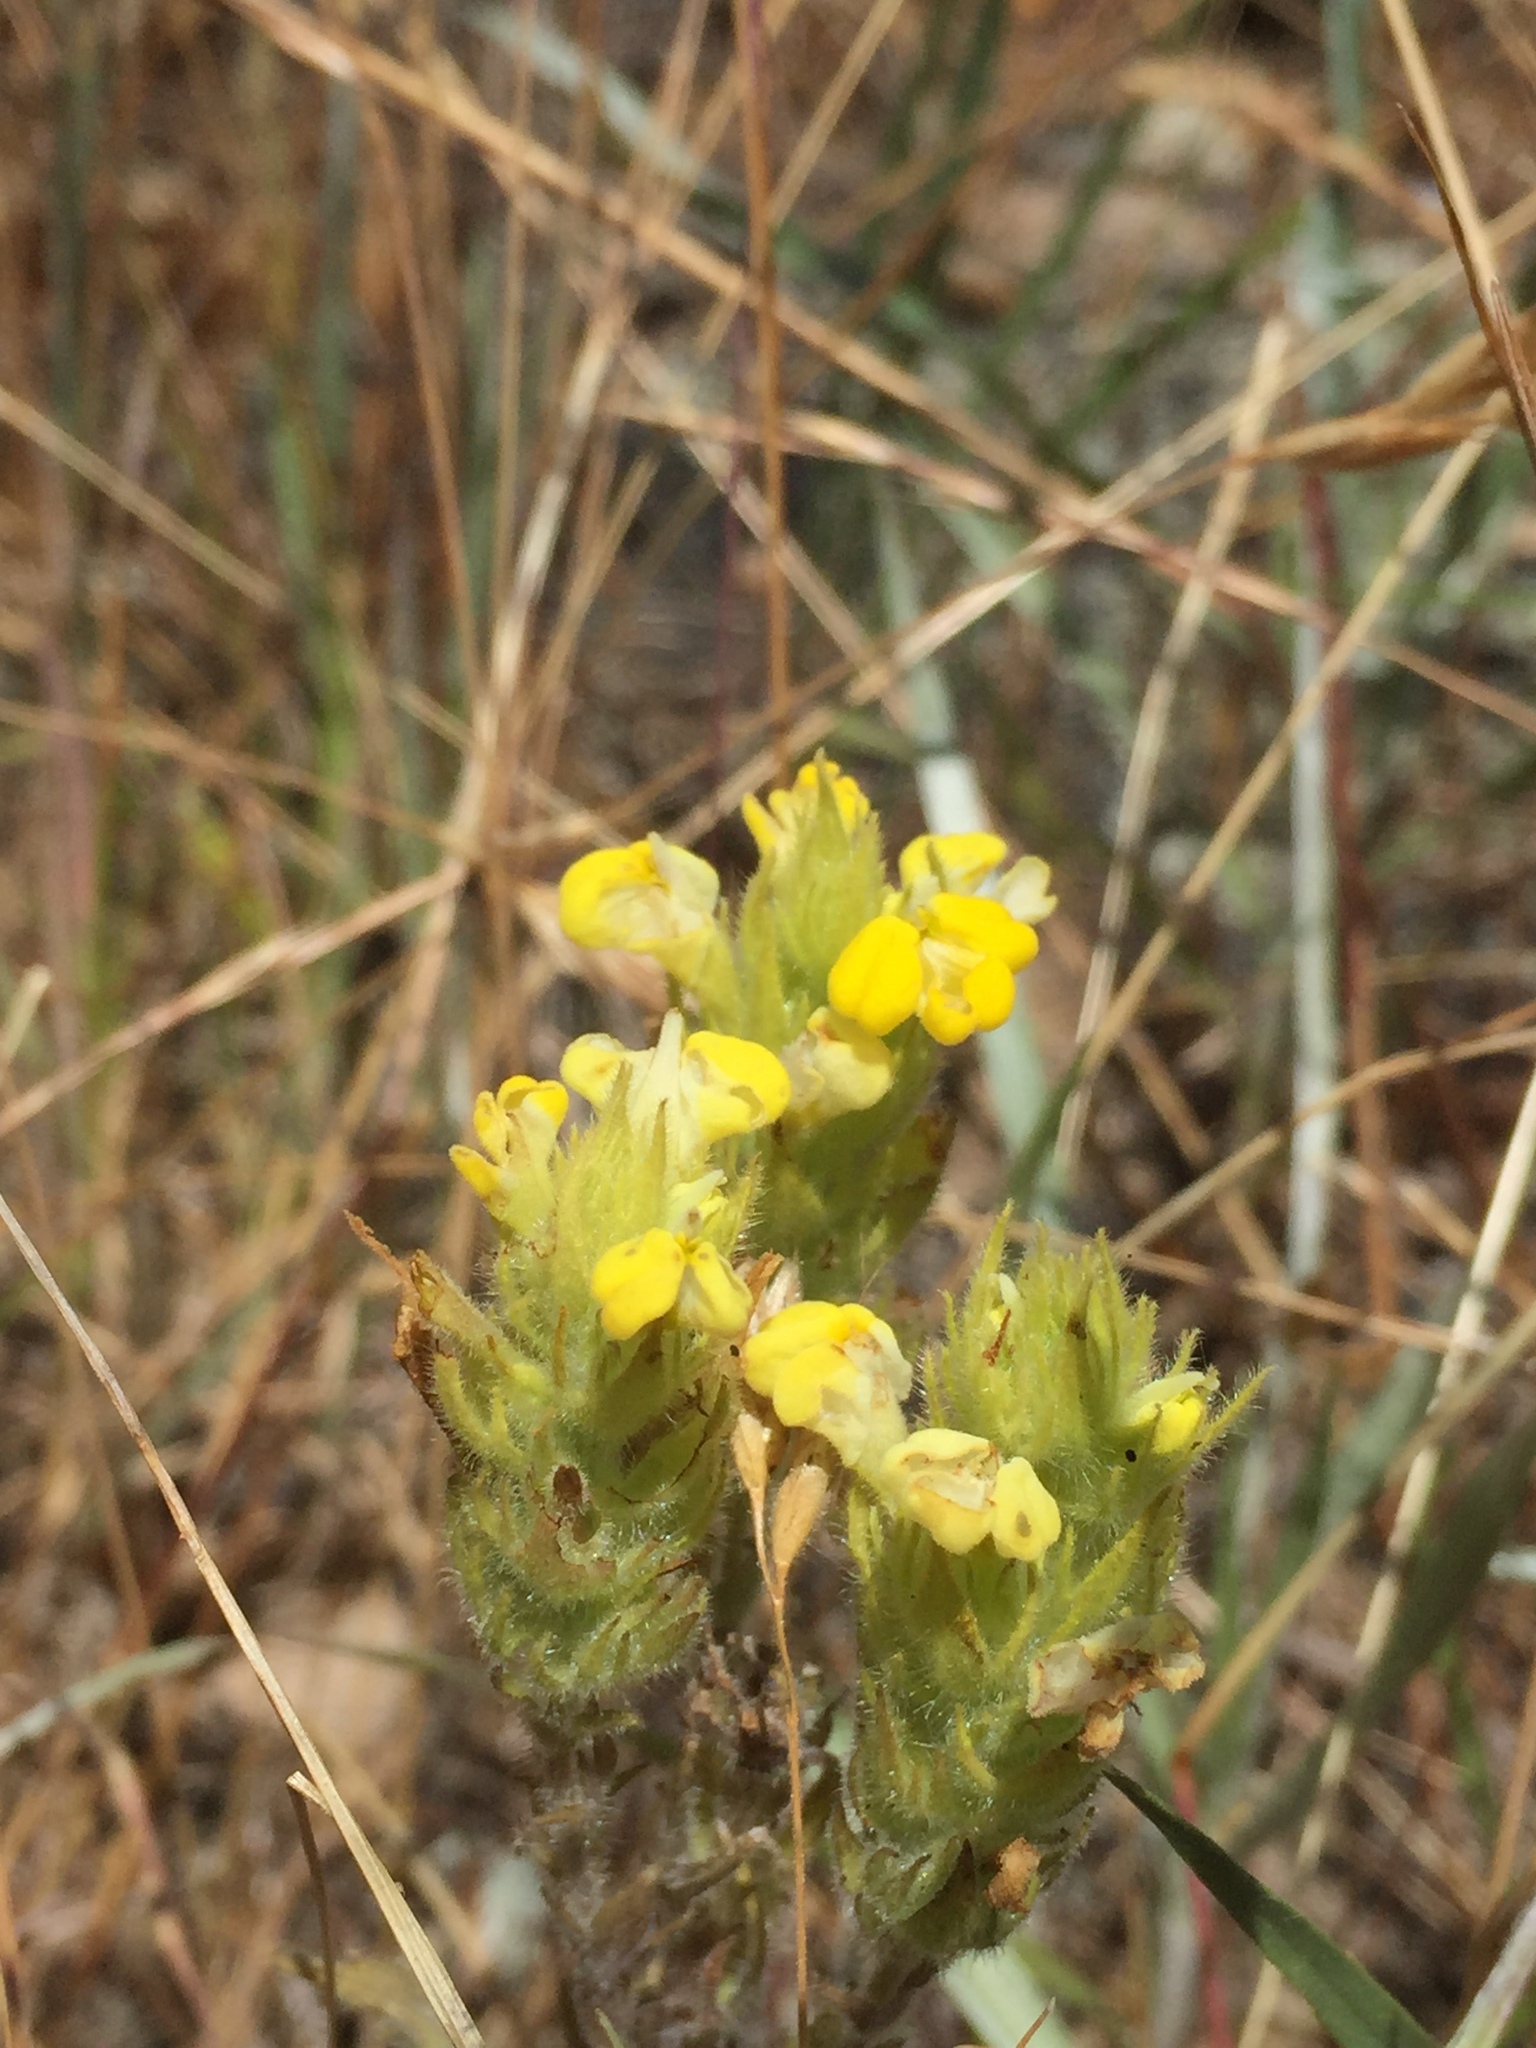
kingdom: Plantae
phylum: Tracheophyta
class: Magnoliopsida
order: Lamiales
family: Orobanchaceae
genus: Castilleja
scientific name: Castilleja rubicundula
